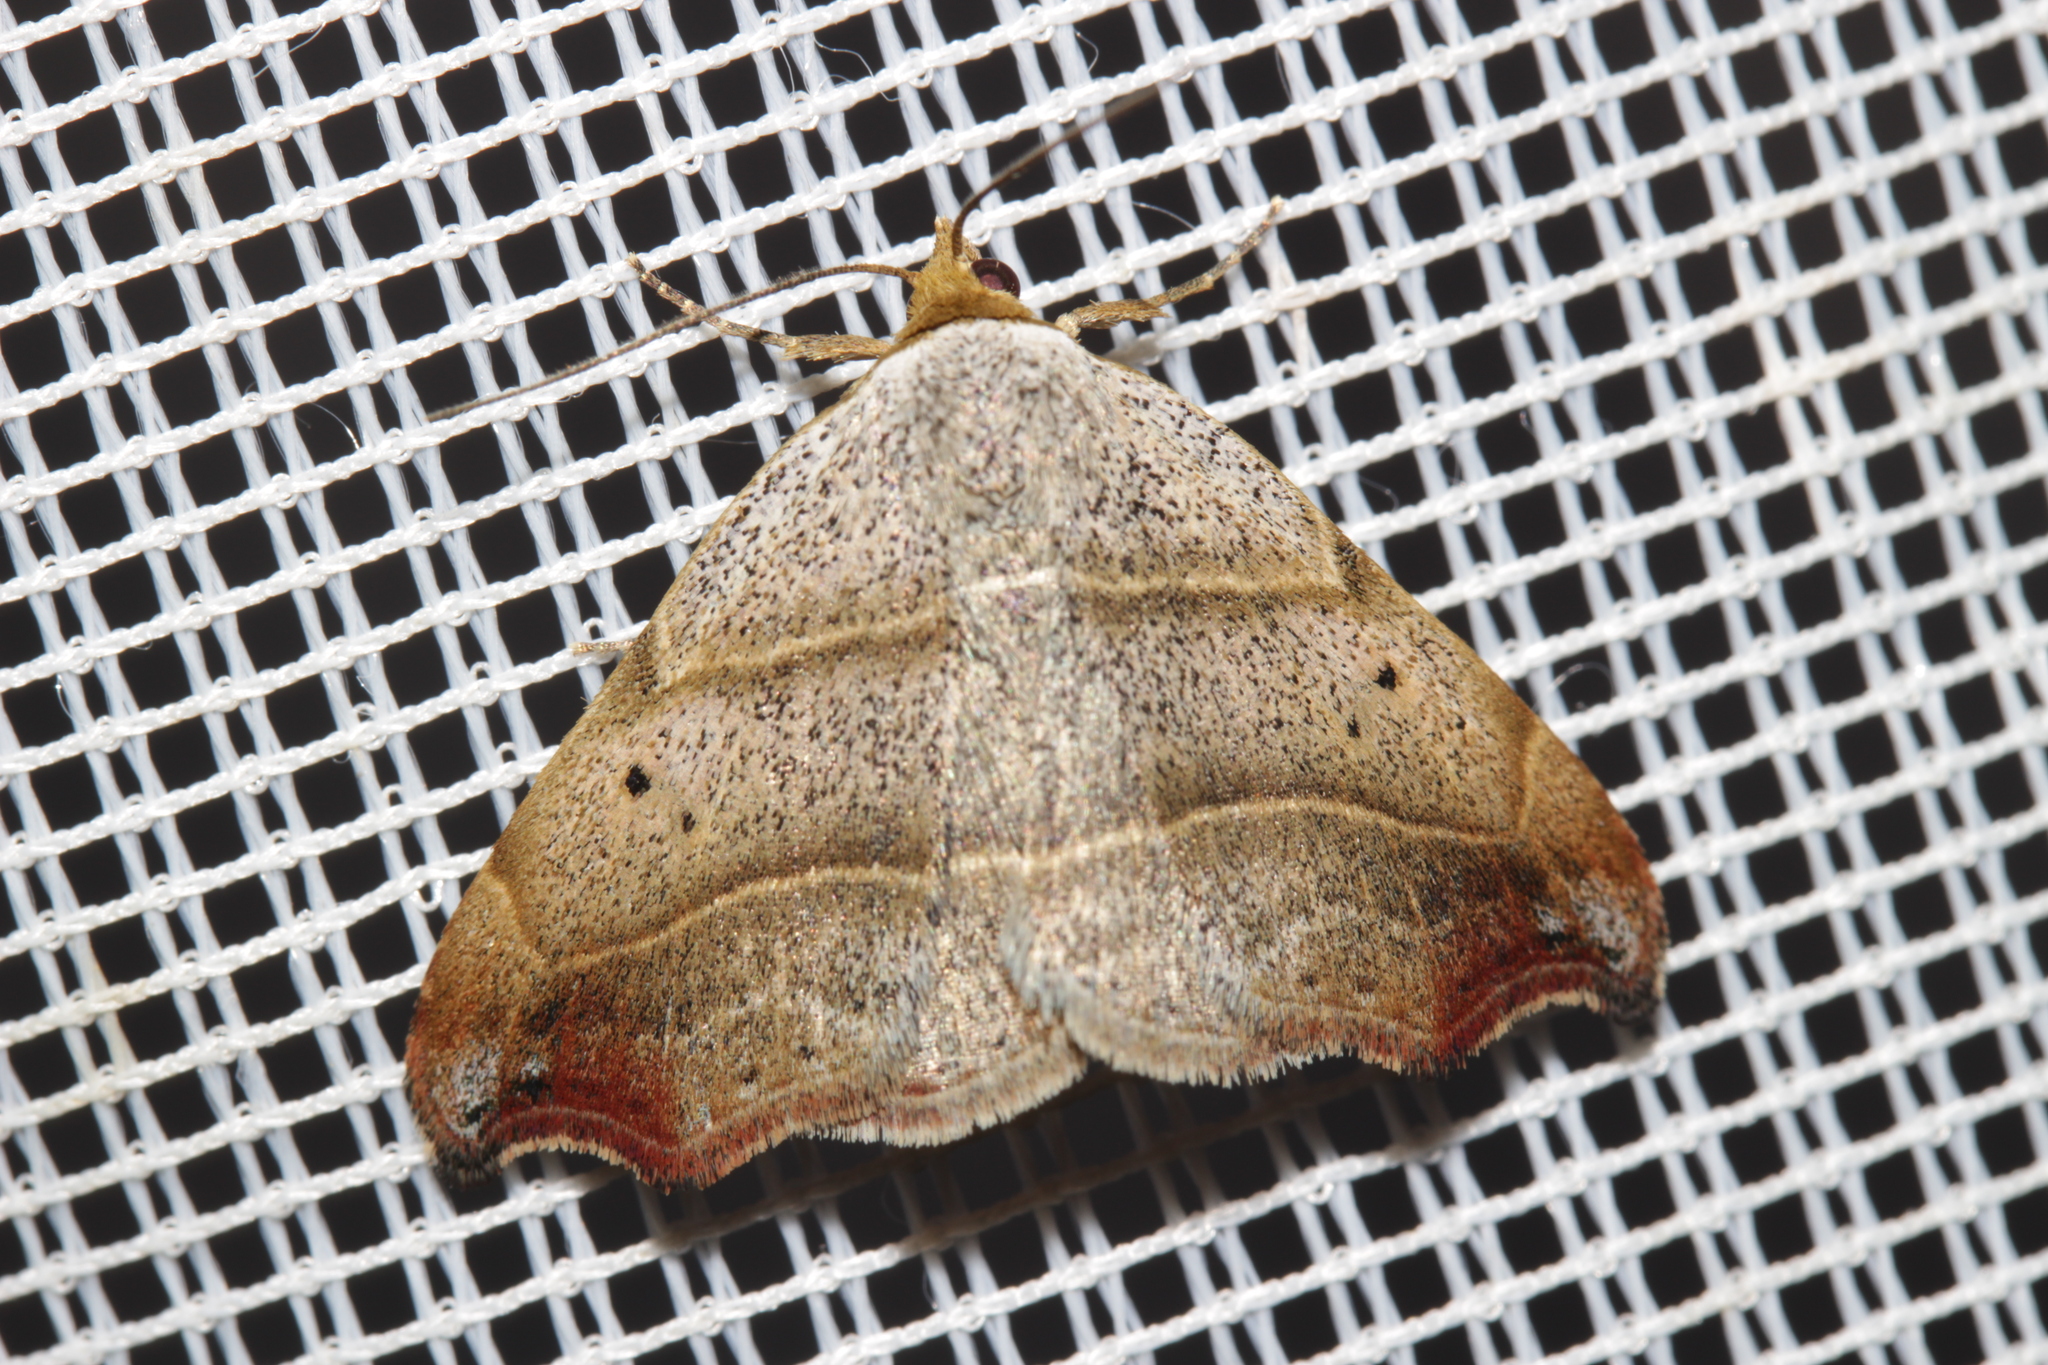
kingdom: Animalia
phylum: Arthropoda
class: Insecta
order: Lepidoptera
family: Erebidae
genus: Laspeyria
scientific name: Laspeyria flexula
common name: Beautiful hook-tip
